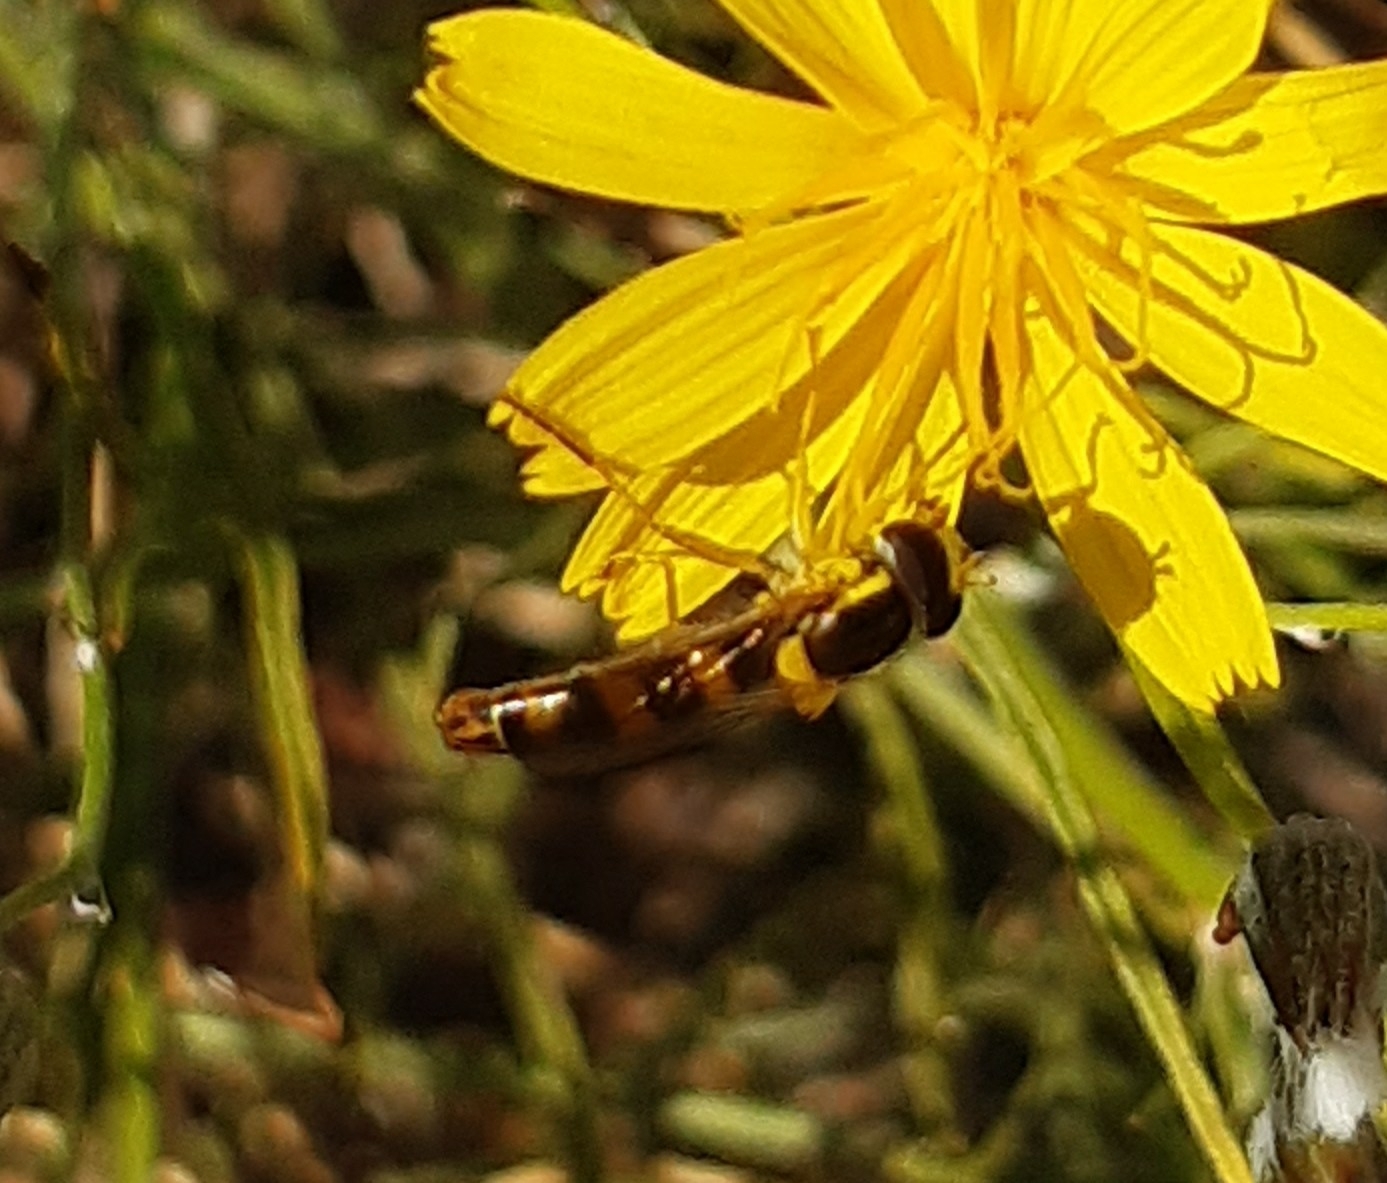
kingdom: Animalia
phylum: Arthropoda
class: Insecta
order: Diptera
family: Syrphidae
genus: Sphaerophoria
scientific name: Sphaerophoria scripta
